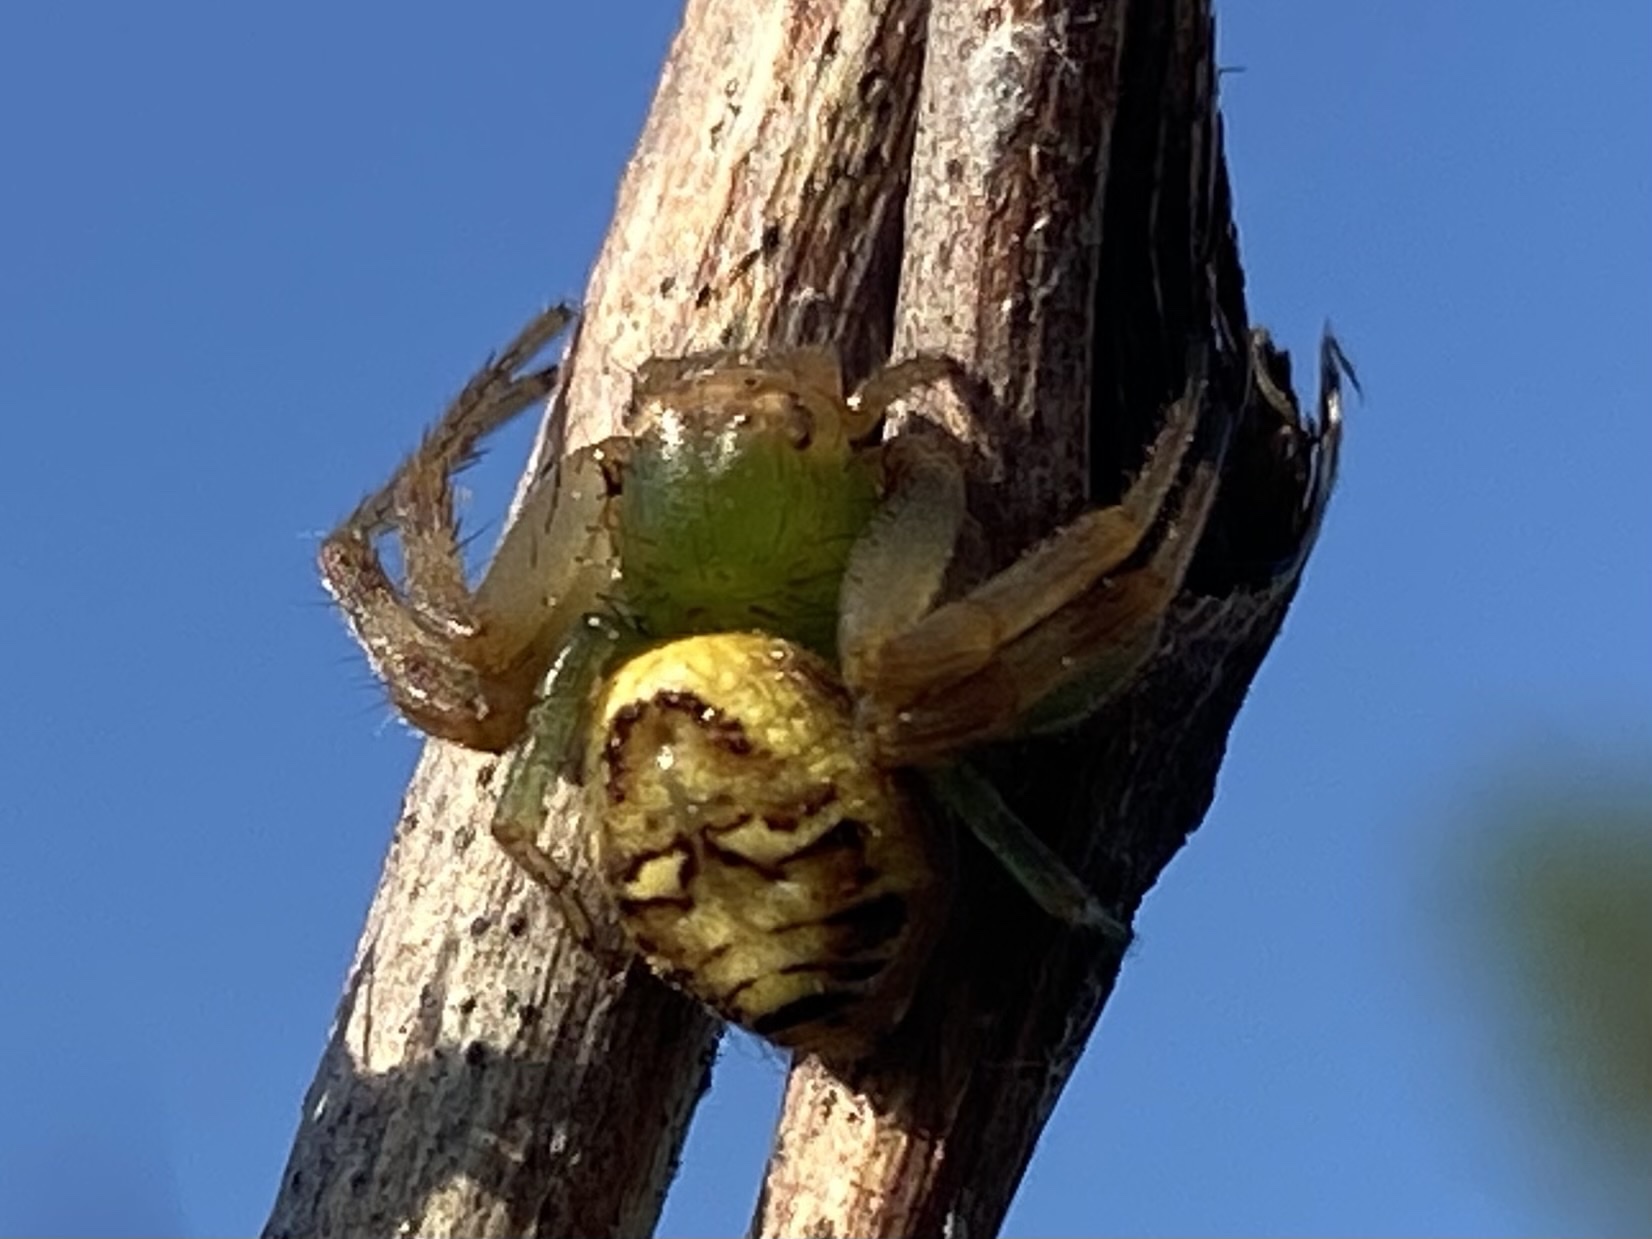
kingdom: Animalia
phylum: Arthropoda
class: Arachnida
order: Araneae
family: Thomisidae
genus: Synema
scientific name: Synema imitatrix
